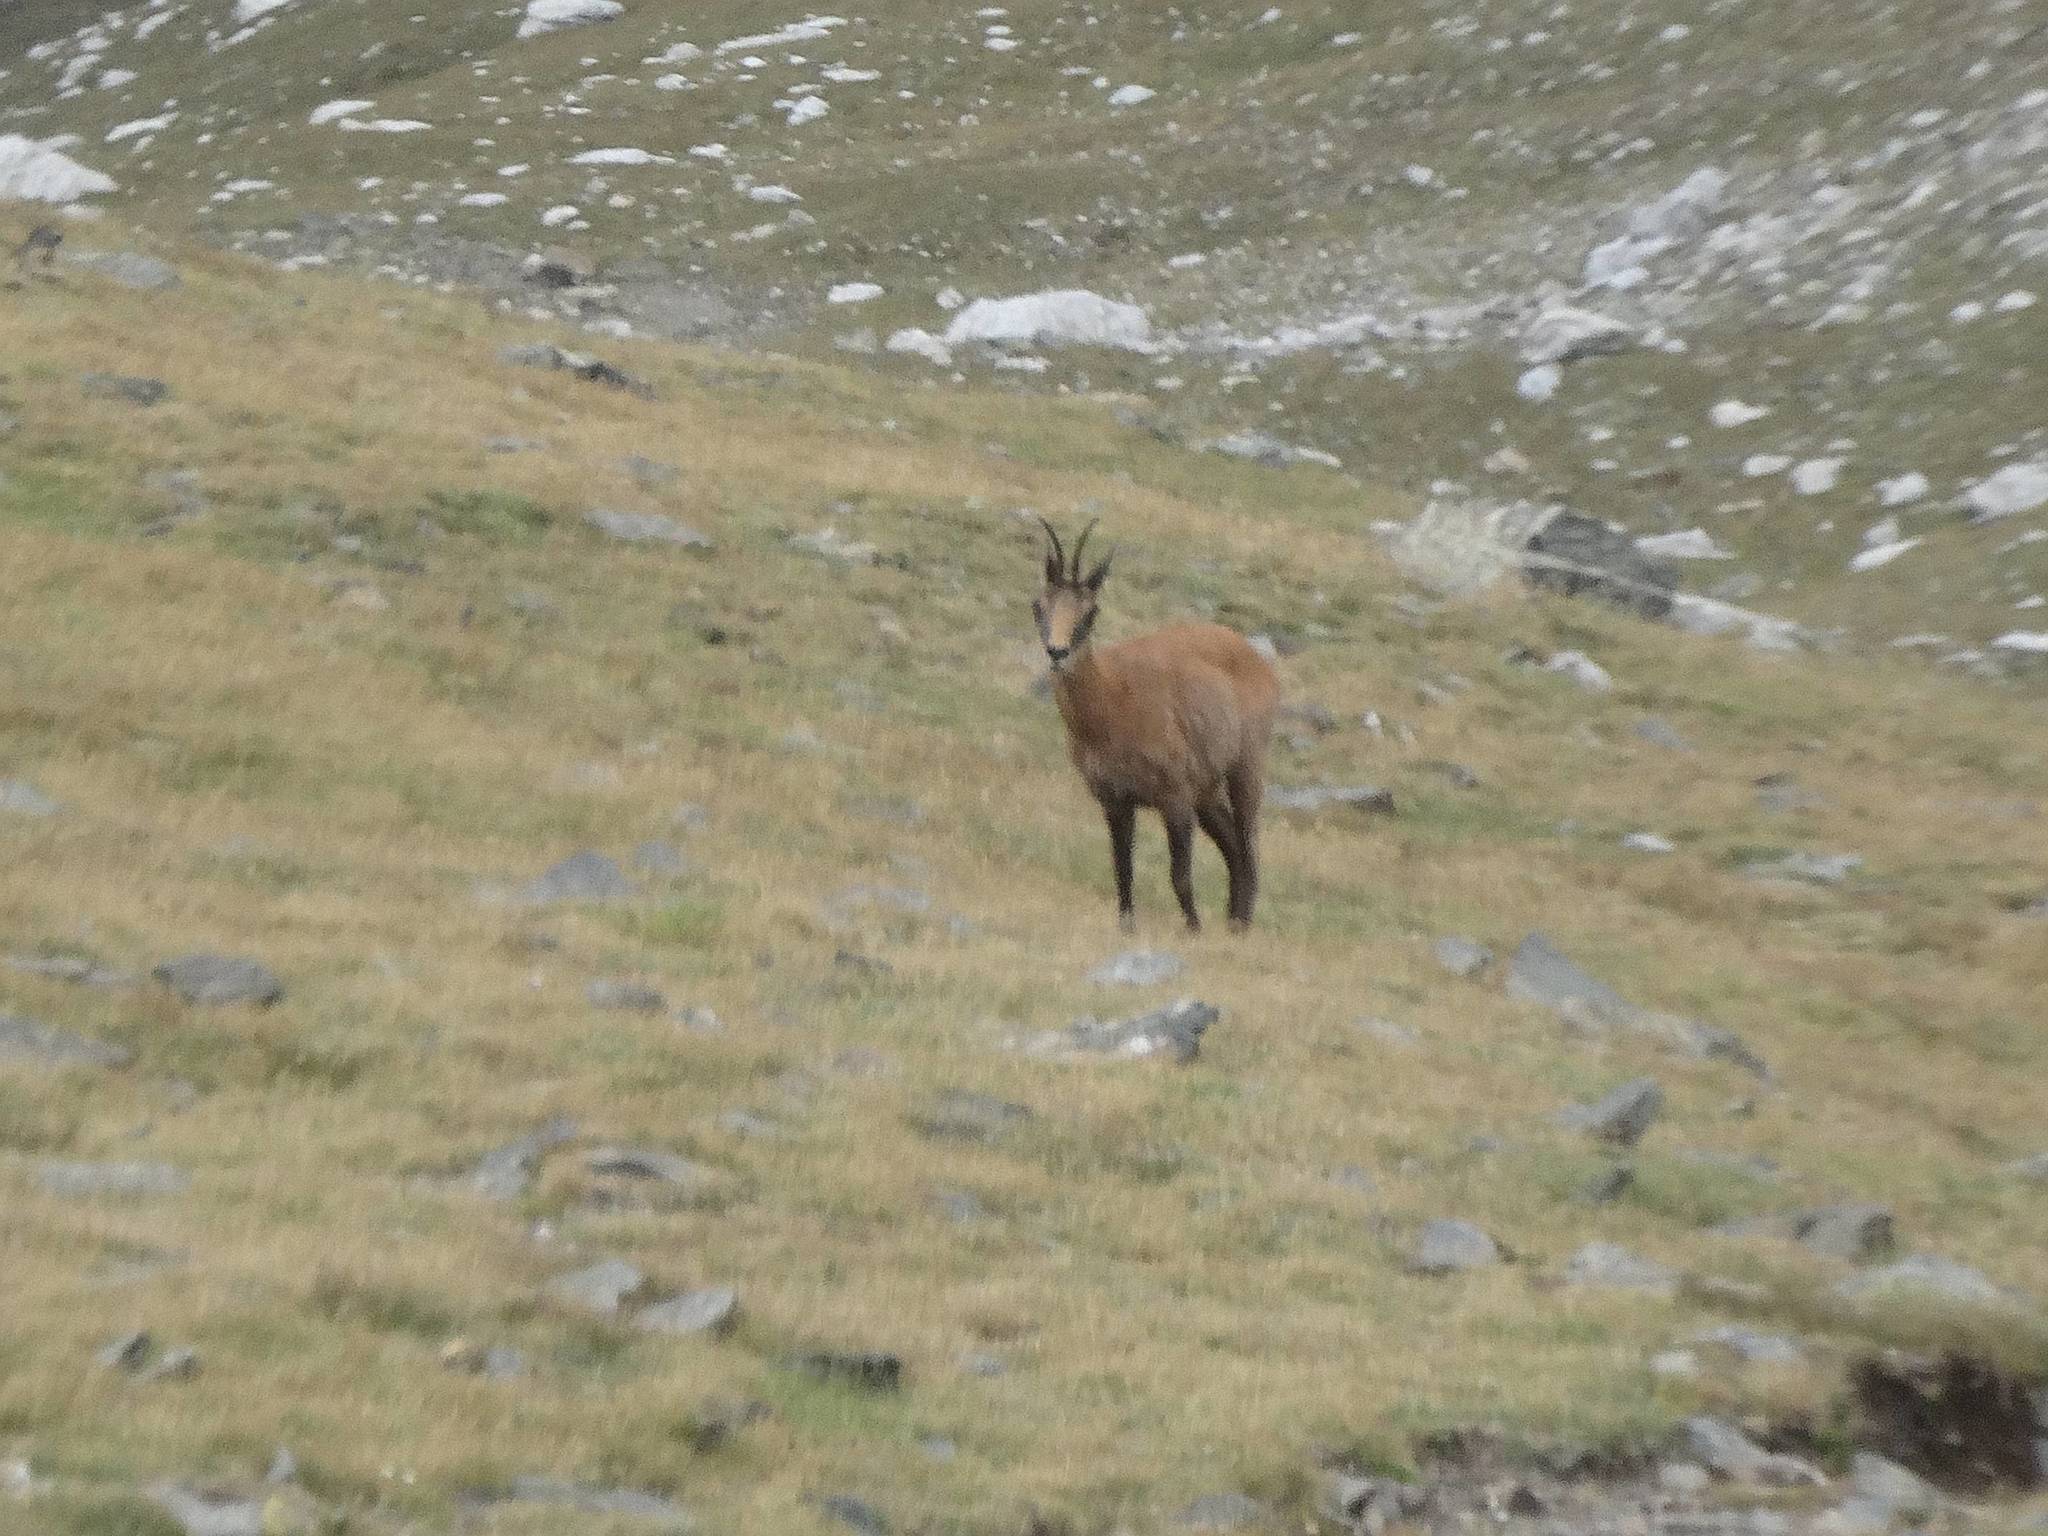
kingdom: Animalia
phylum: Chordata
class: Mammalia
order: Artiodactyla
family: Bovidae
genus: Rupicapra
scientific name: Rupicapra pyrenaica
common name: Pyrenean chamois
